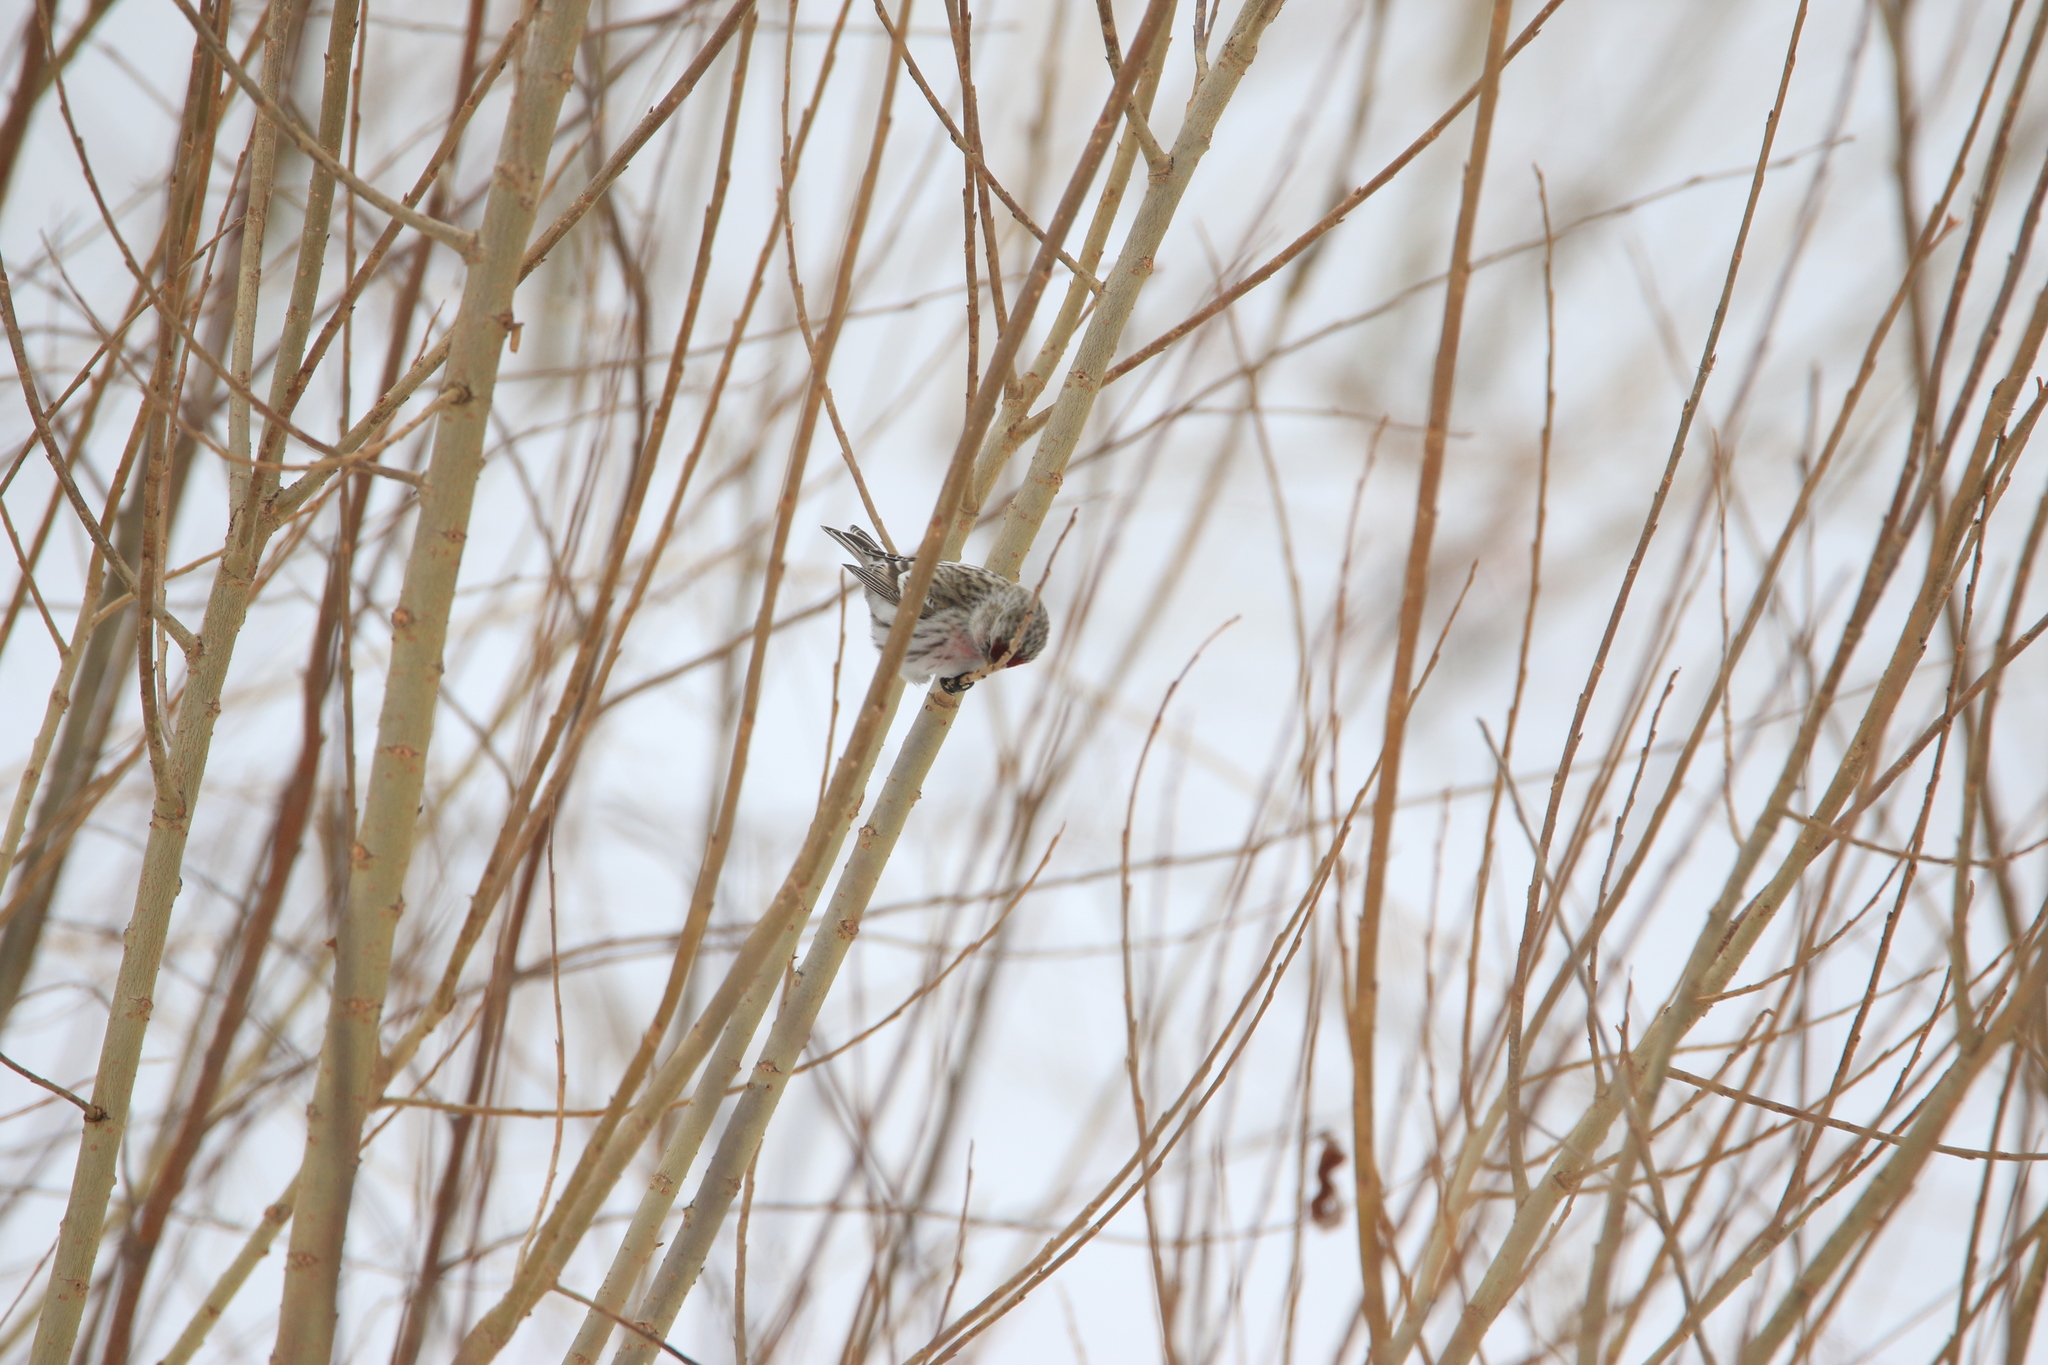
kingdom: Animalia
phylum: Chordata
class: Aves
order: Passeriformes
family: Fringillidae
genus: Acanthis
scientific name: Acanthis flammea
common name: Common redpoll
